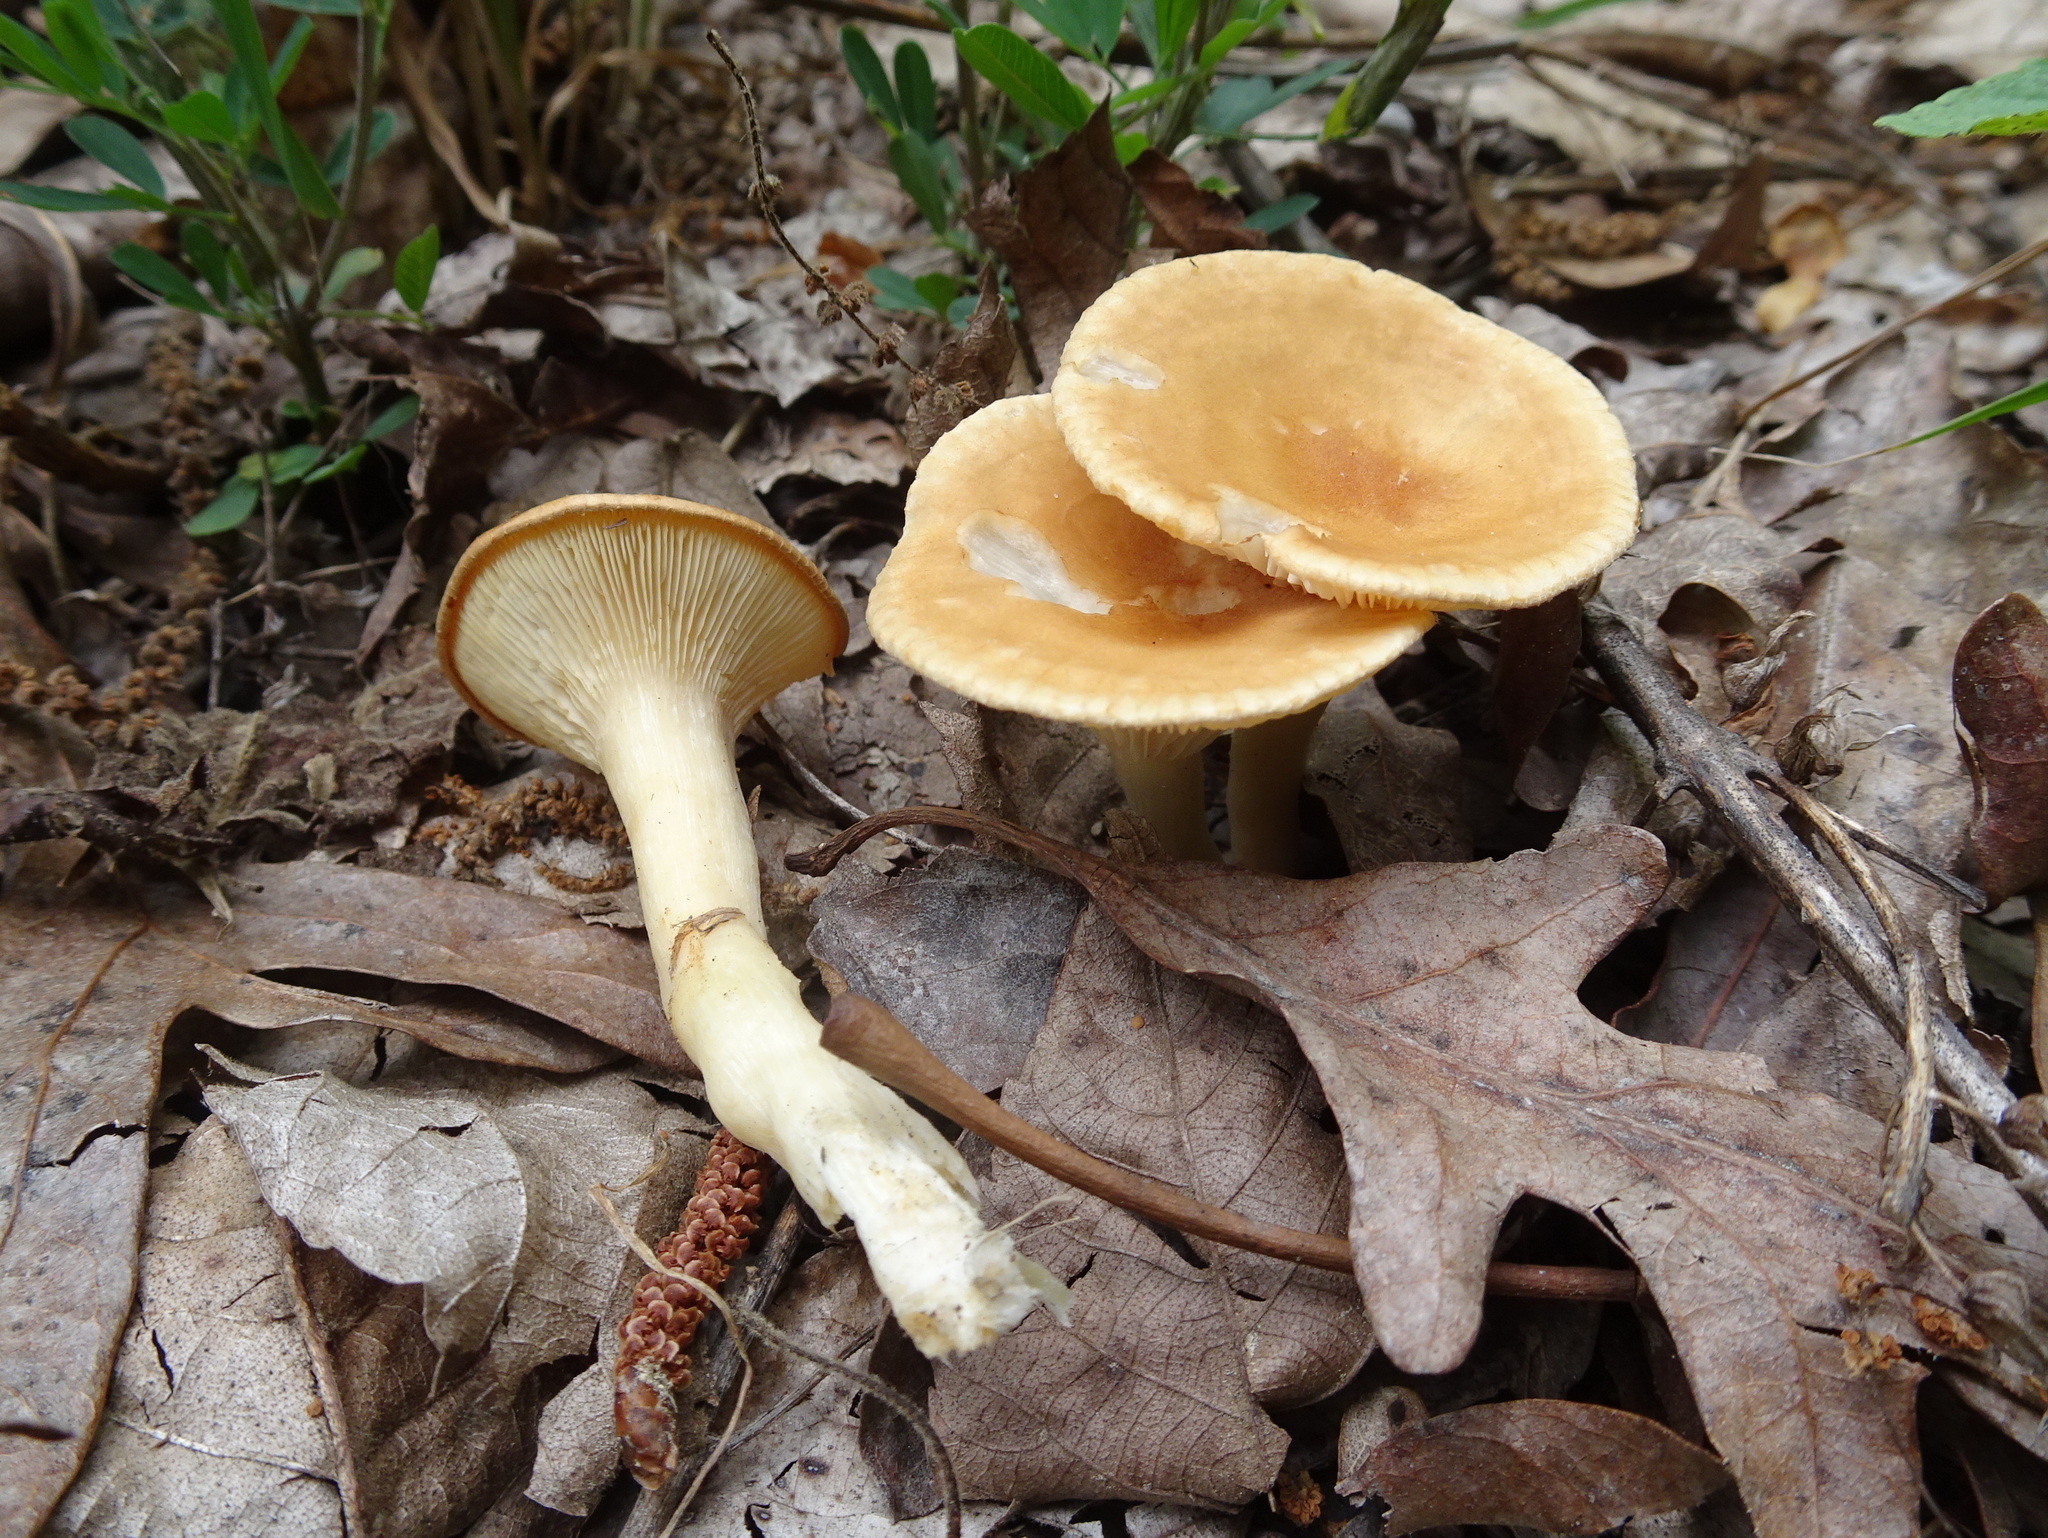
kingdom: Fungi
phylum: Basidiomycota
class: Agaricomycetes
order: Agaricales
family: Tricholomataceae
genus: Infundibulicybe
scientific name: Infundibulicybe gibba
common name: Common funnel
